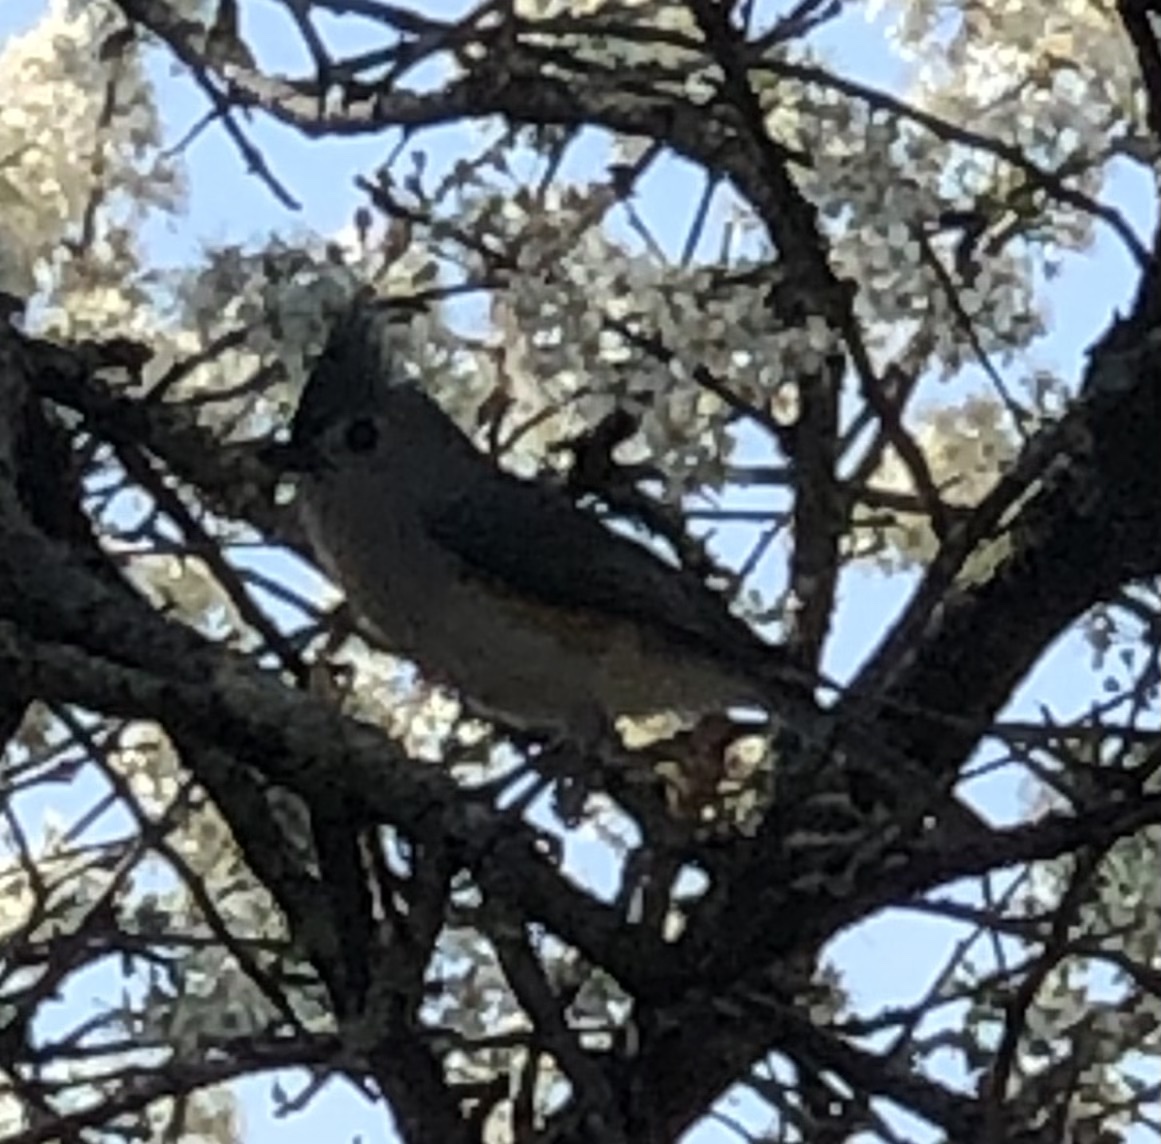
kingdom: Animalia
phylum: Chordata
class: Aves
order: Passeriformes
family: Paridae
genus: Baeolophus
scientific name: Baeolophus bicolor
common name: Tufted titmouse
